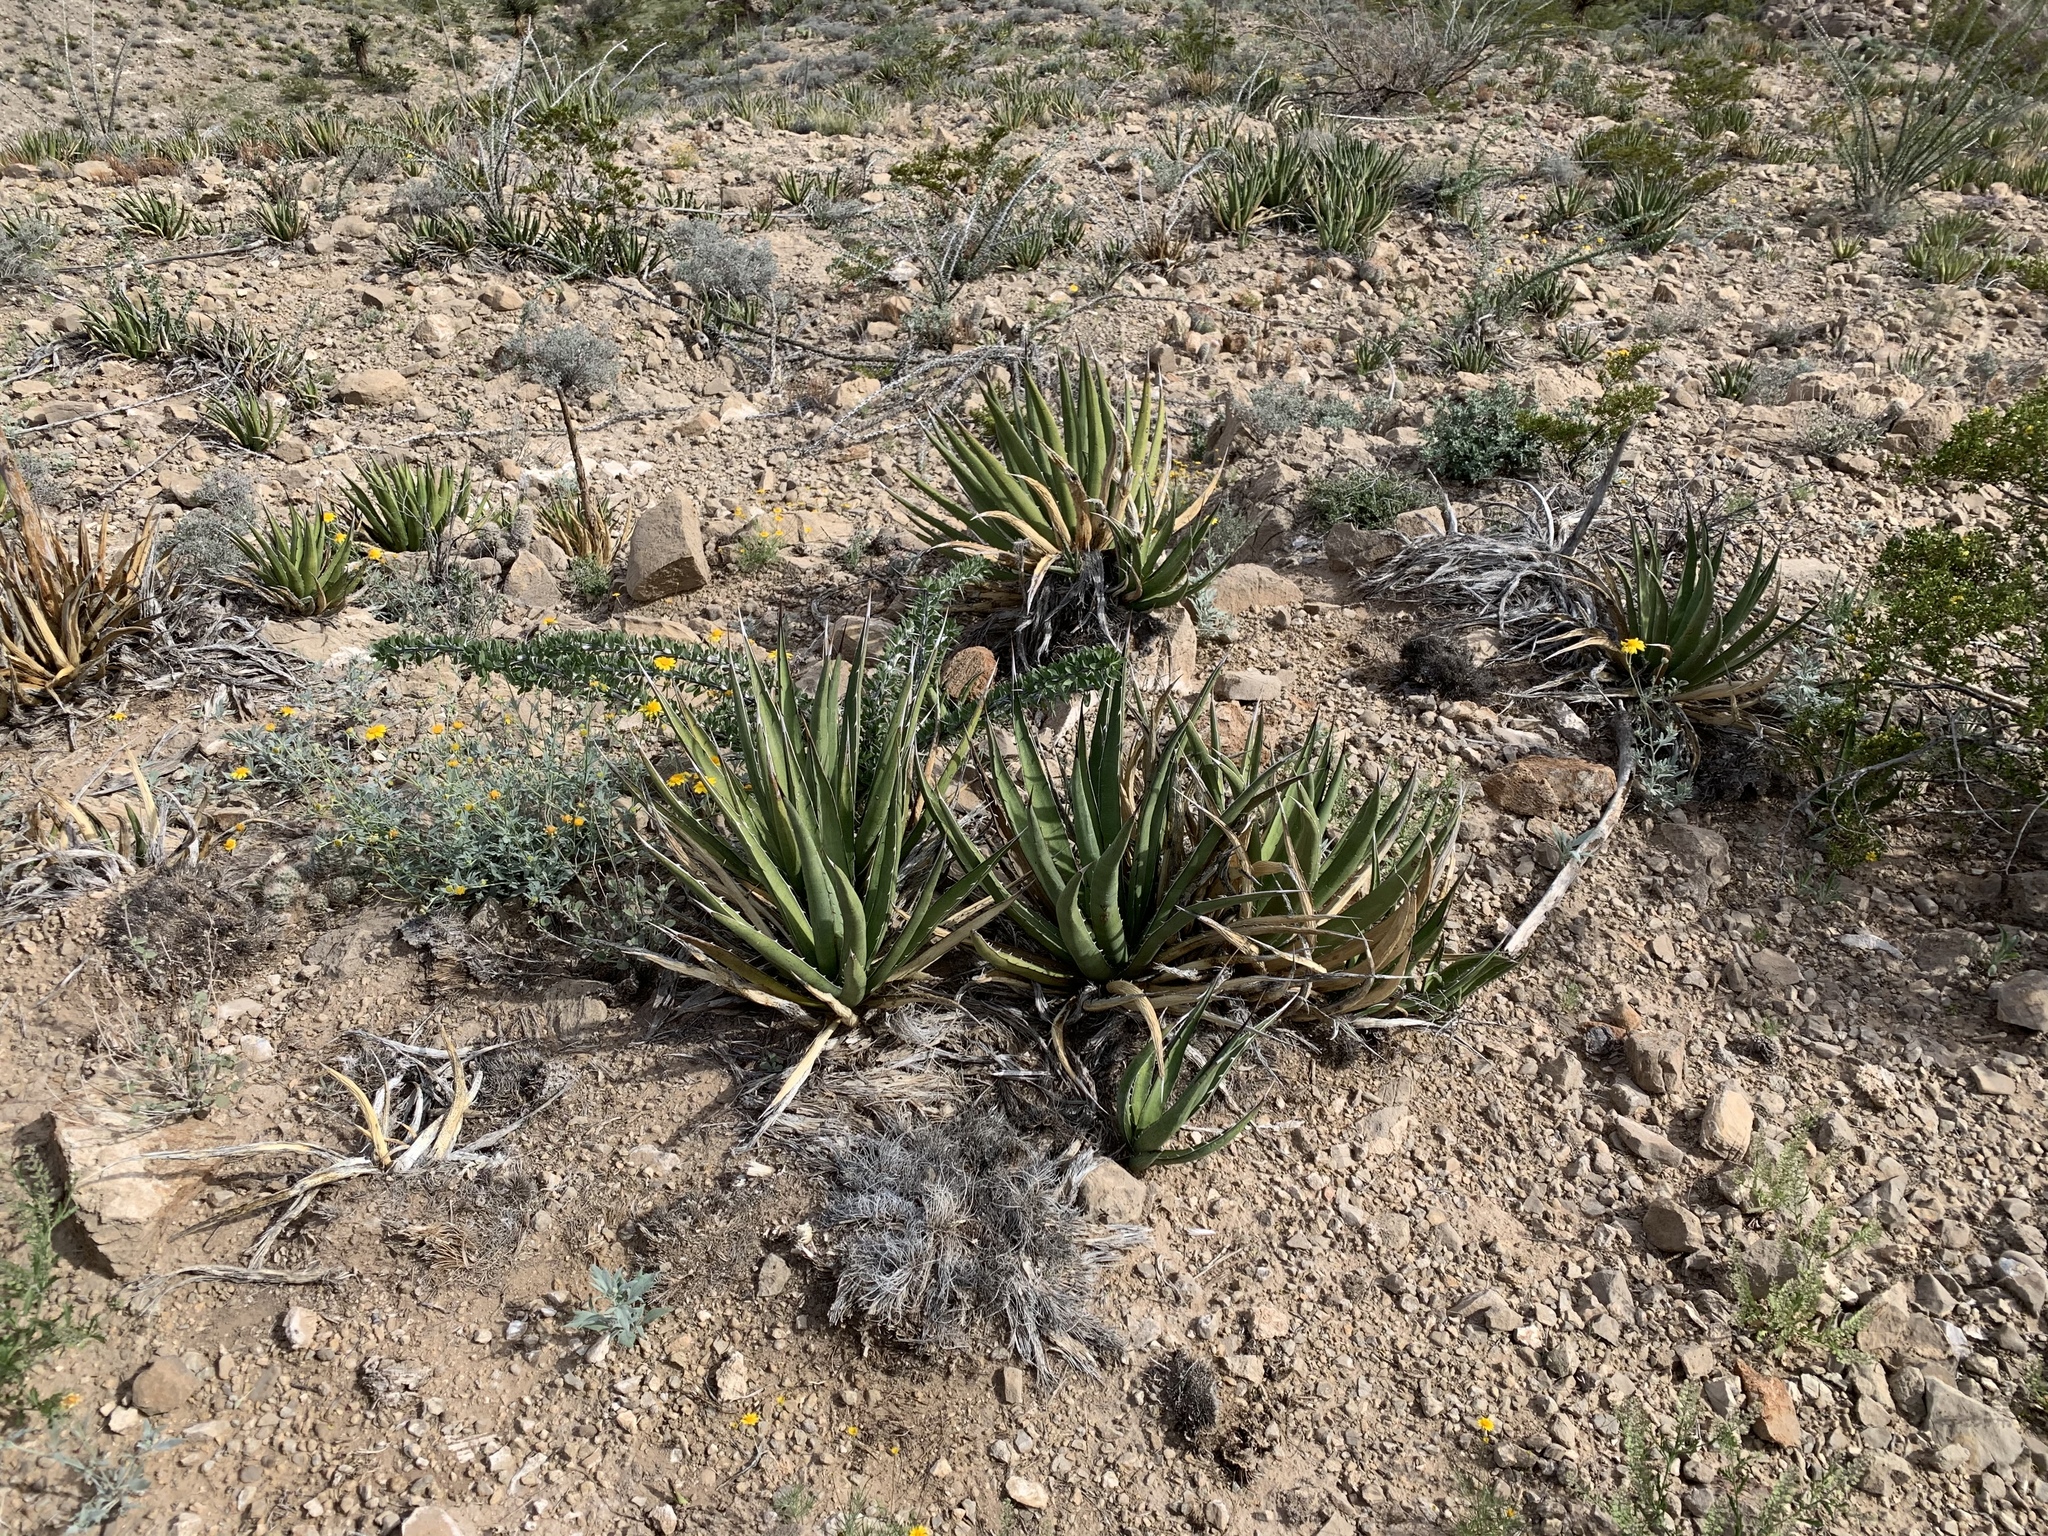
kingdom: Plantae
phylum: Tracheophyta
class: Liliopsida
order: Asparagales
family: Asparagaceae
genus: Agave
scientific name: Agave lechuguilla
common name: Lecheguilla agave
